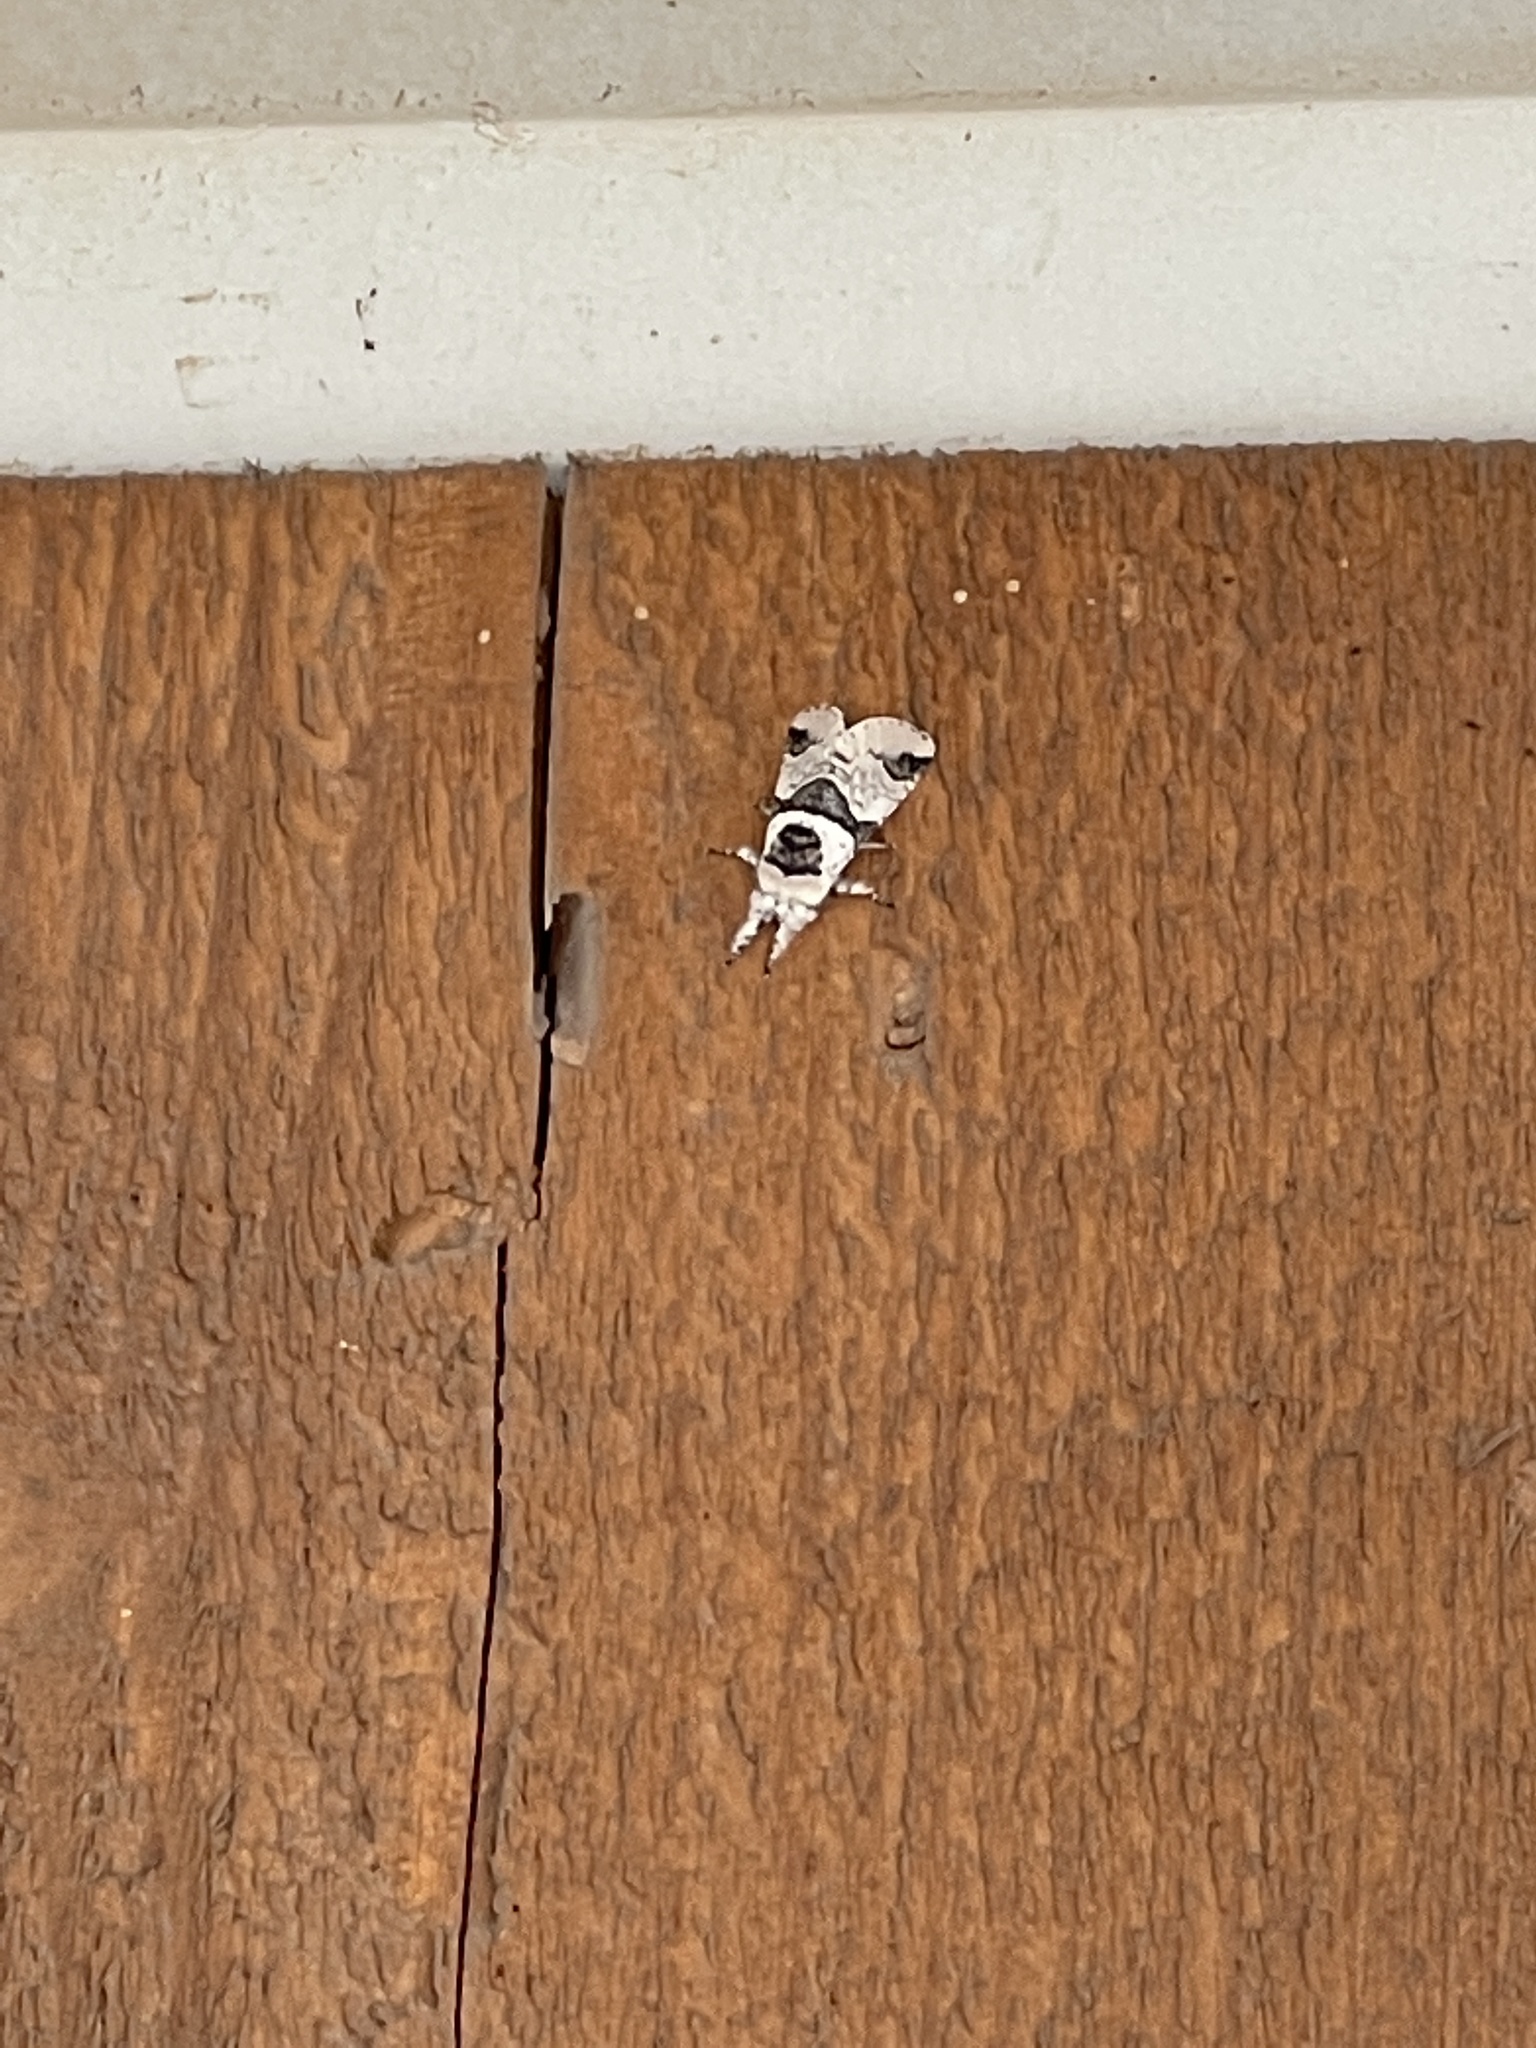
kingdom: Animalia
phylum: Arthropoda
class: Insecta
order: Lepidoptera
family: Notodontidae
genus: Furcula
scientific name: Furcula scolopendrina
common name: Zigzag furcula moth
